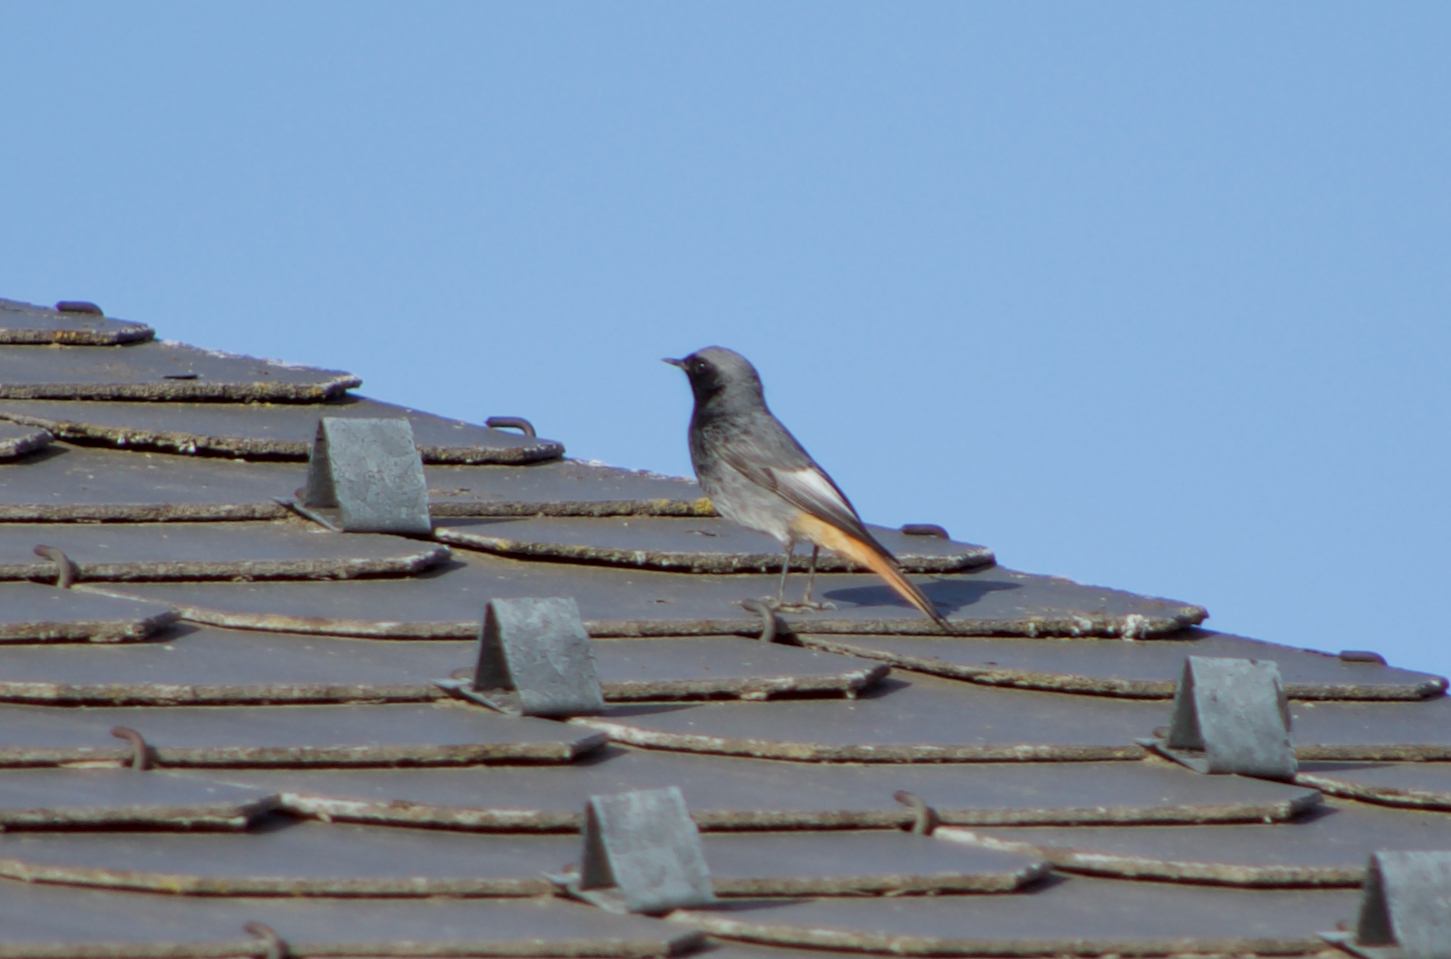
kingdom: Animalia
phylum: Chordata
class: Aves
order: Passeriformes
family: Muscicapidae
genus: Phoenicurus
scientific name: Phoenicurus ochruros
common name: Black redstart
